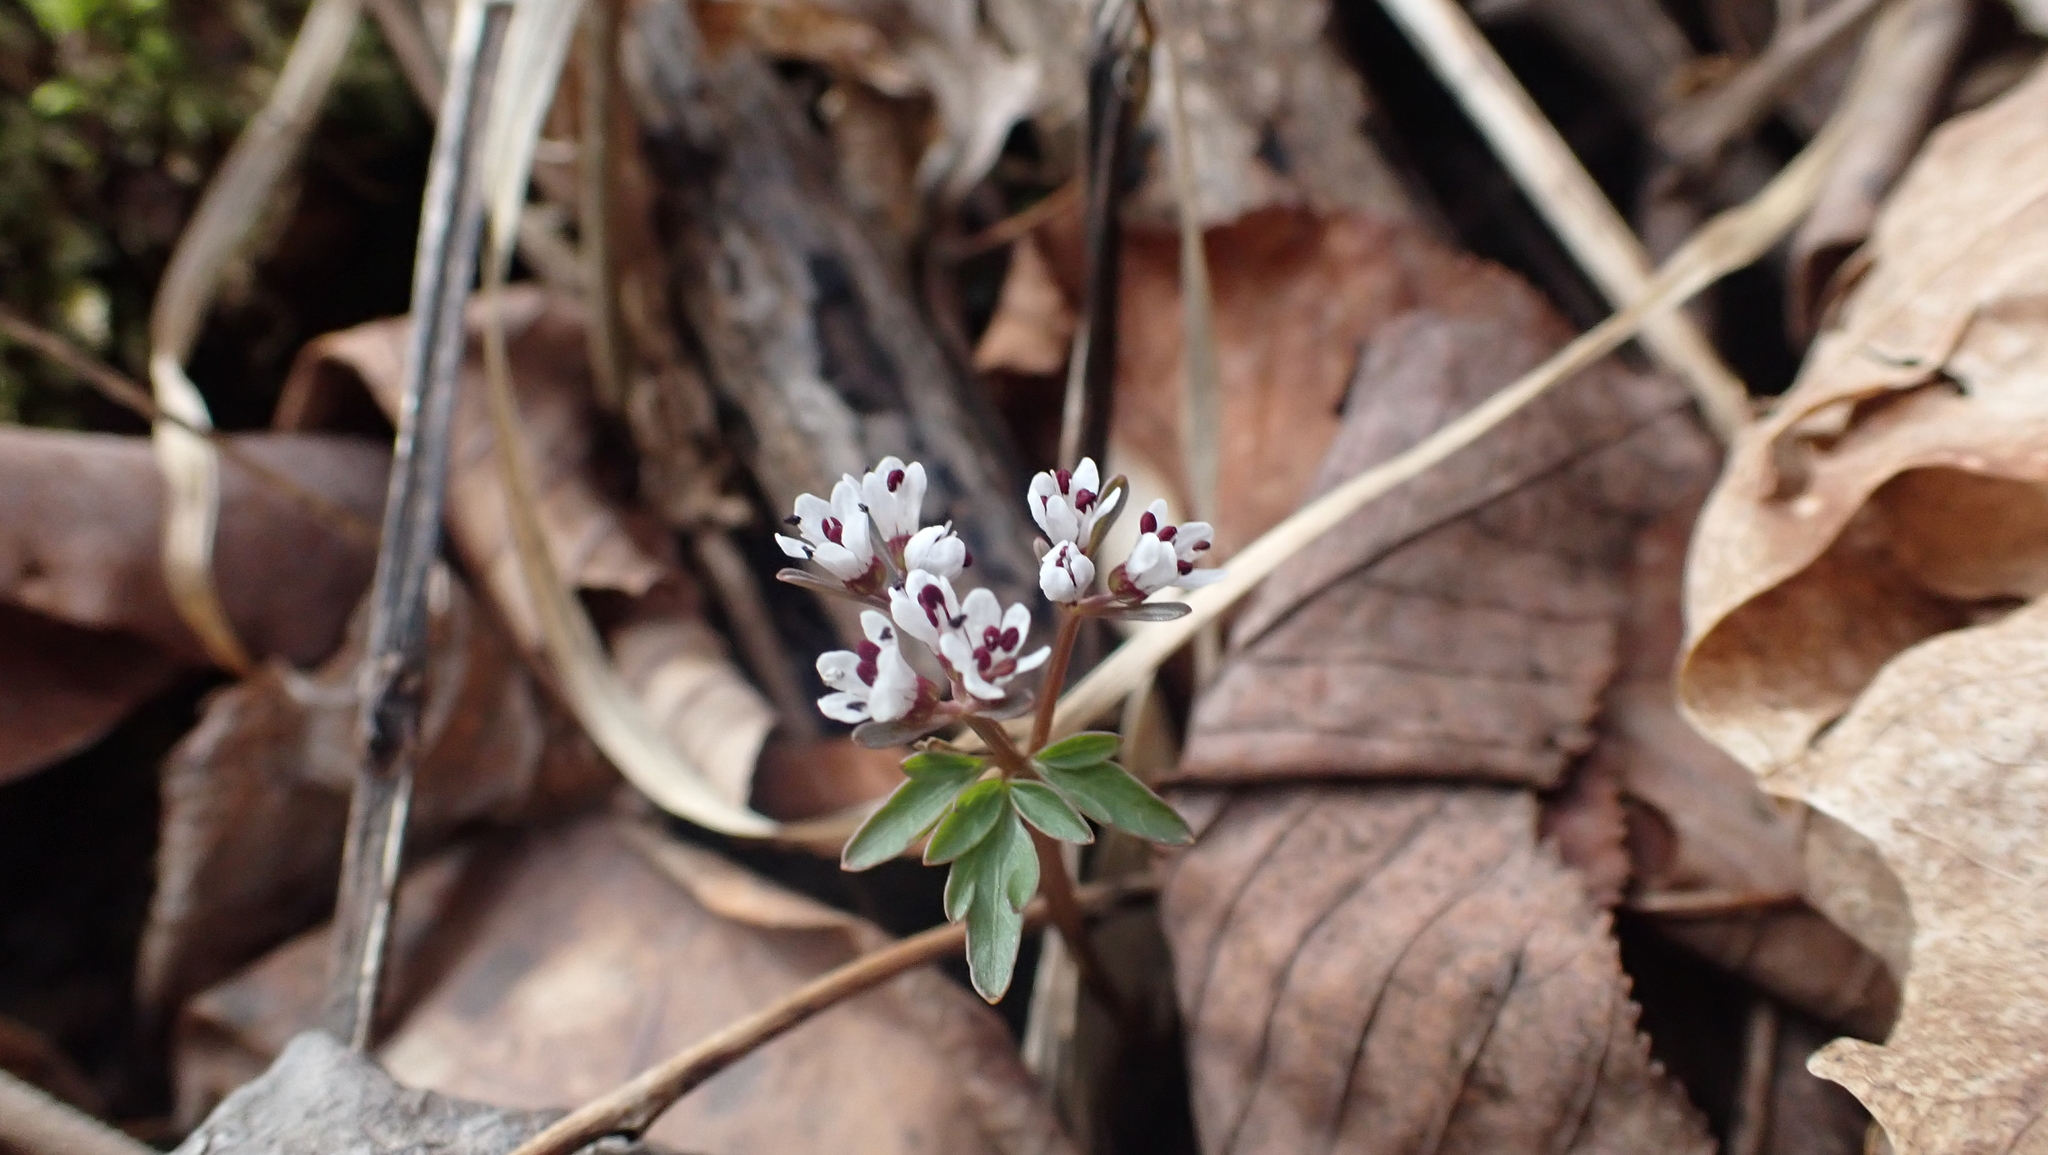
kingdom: Plantae
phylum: Tracheophyta
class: Magnoliopsida
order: Apiales
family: Apiaceae
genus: Erigenia
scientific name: Erigenia bulbosa
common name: Pepper-and-salt
